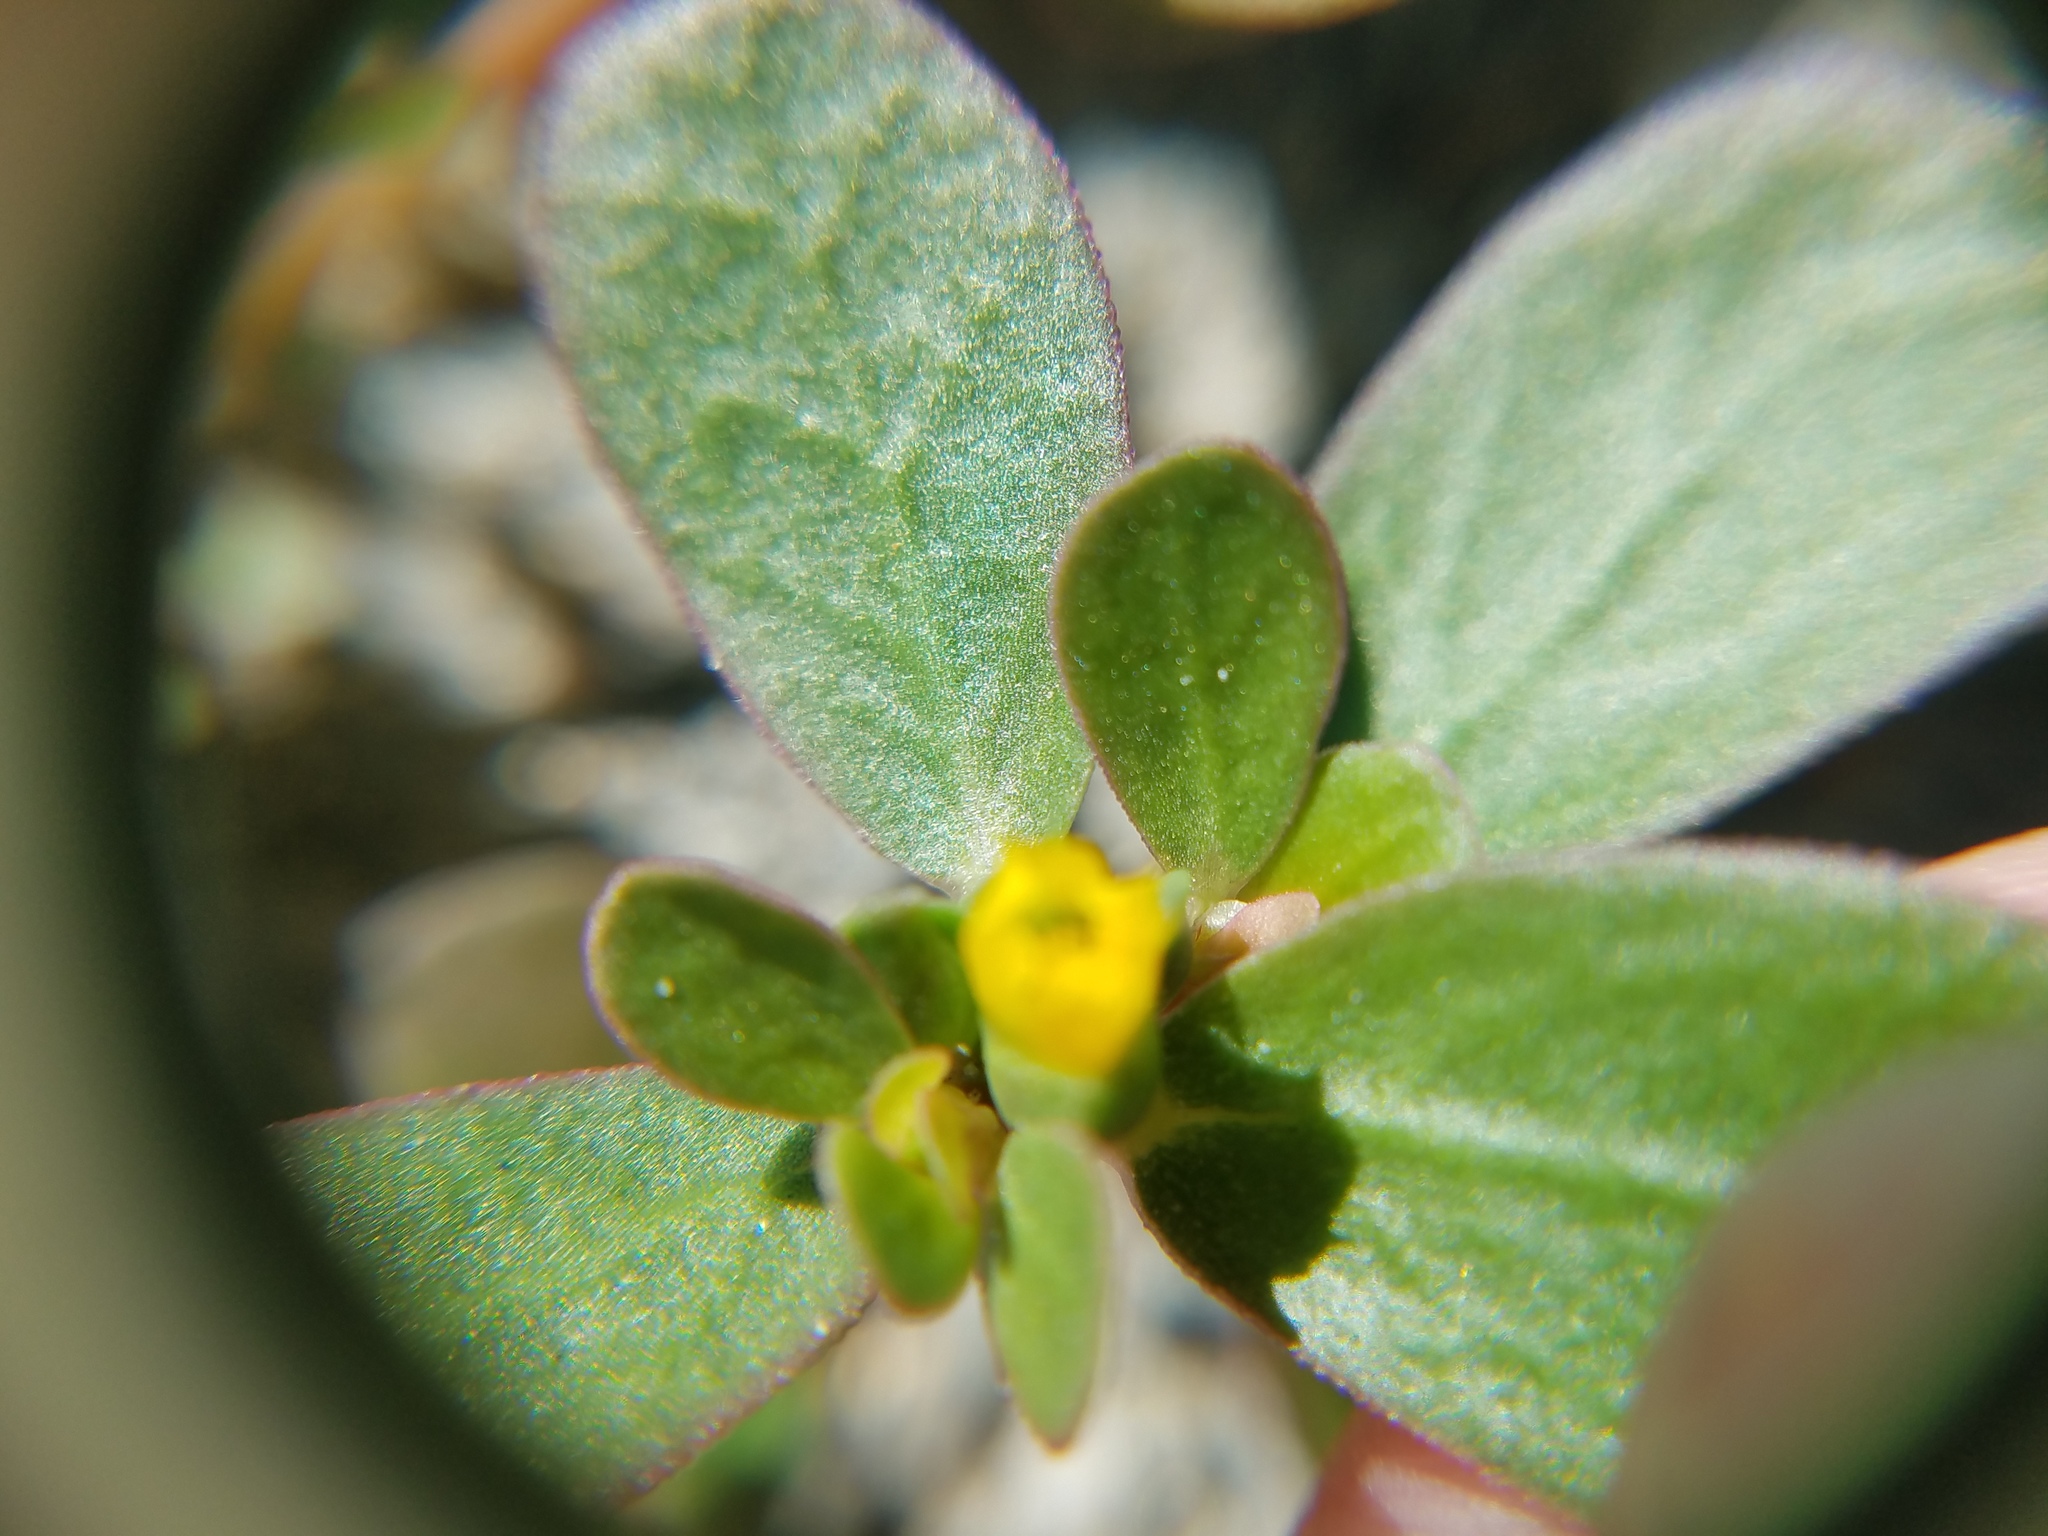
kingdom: Plantae
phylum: Tracheophyta
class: Magnoliopsida
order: Caryophyllales
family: Portulacaceae
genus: Portulaca
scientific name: Portulaca oleracea
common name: Common purslane
